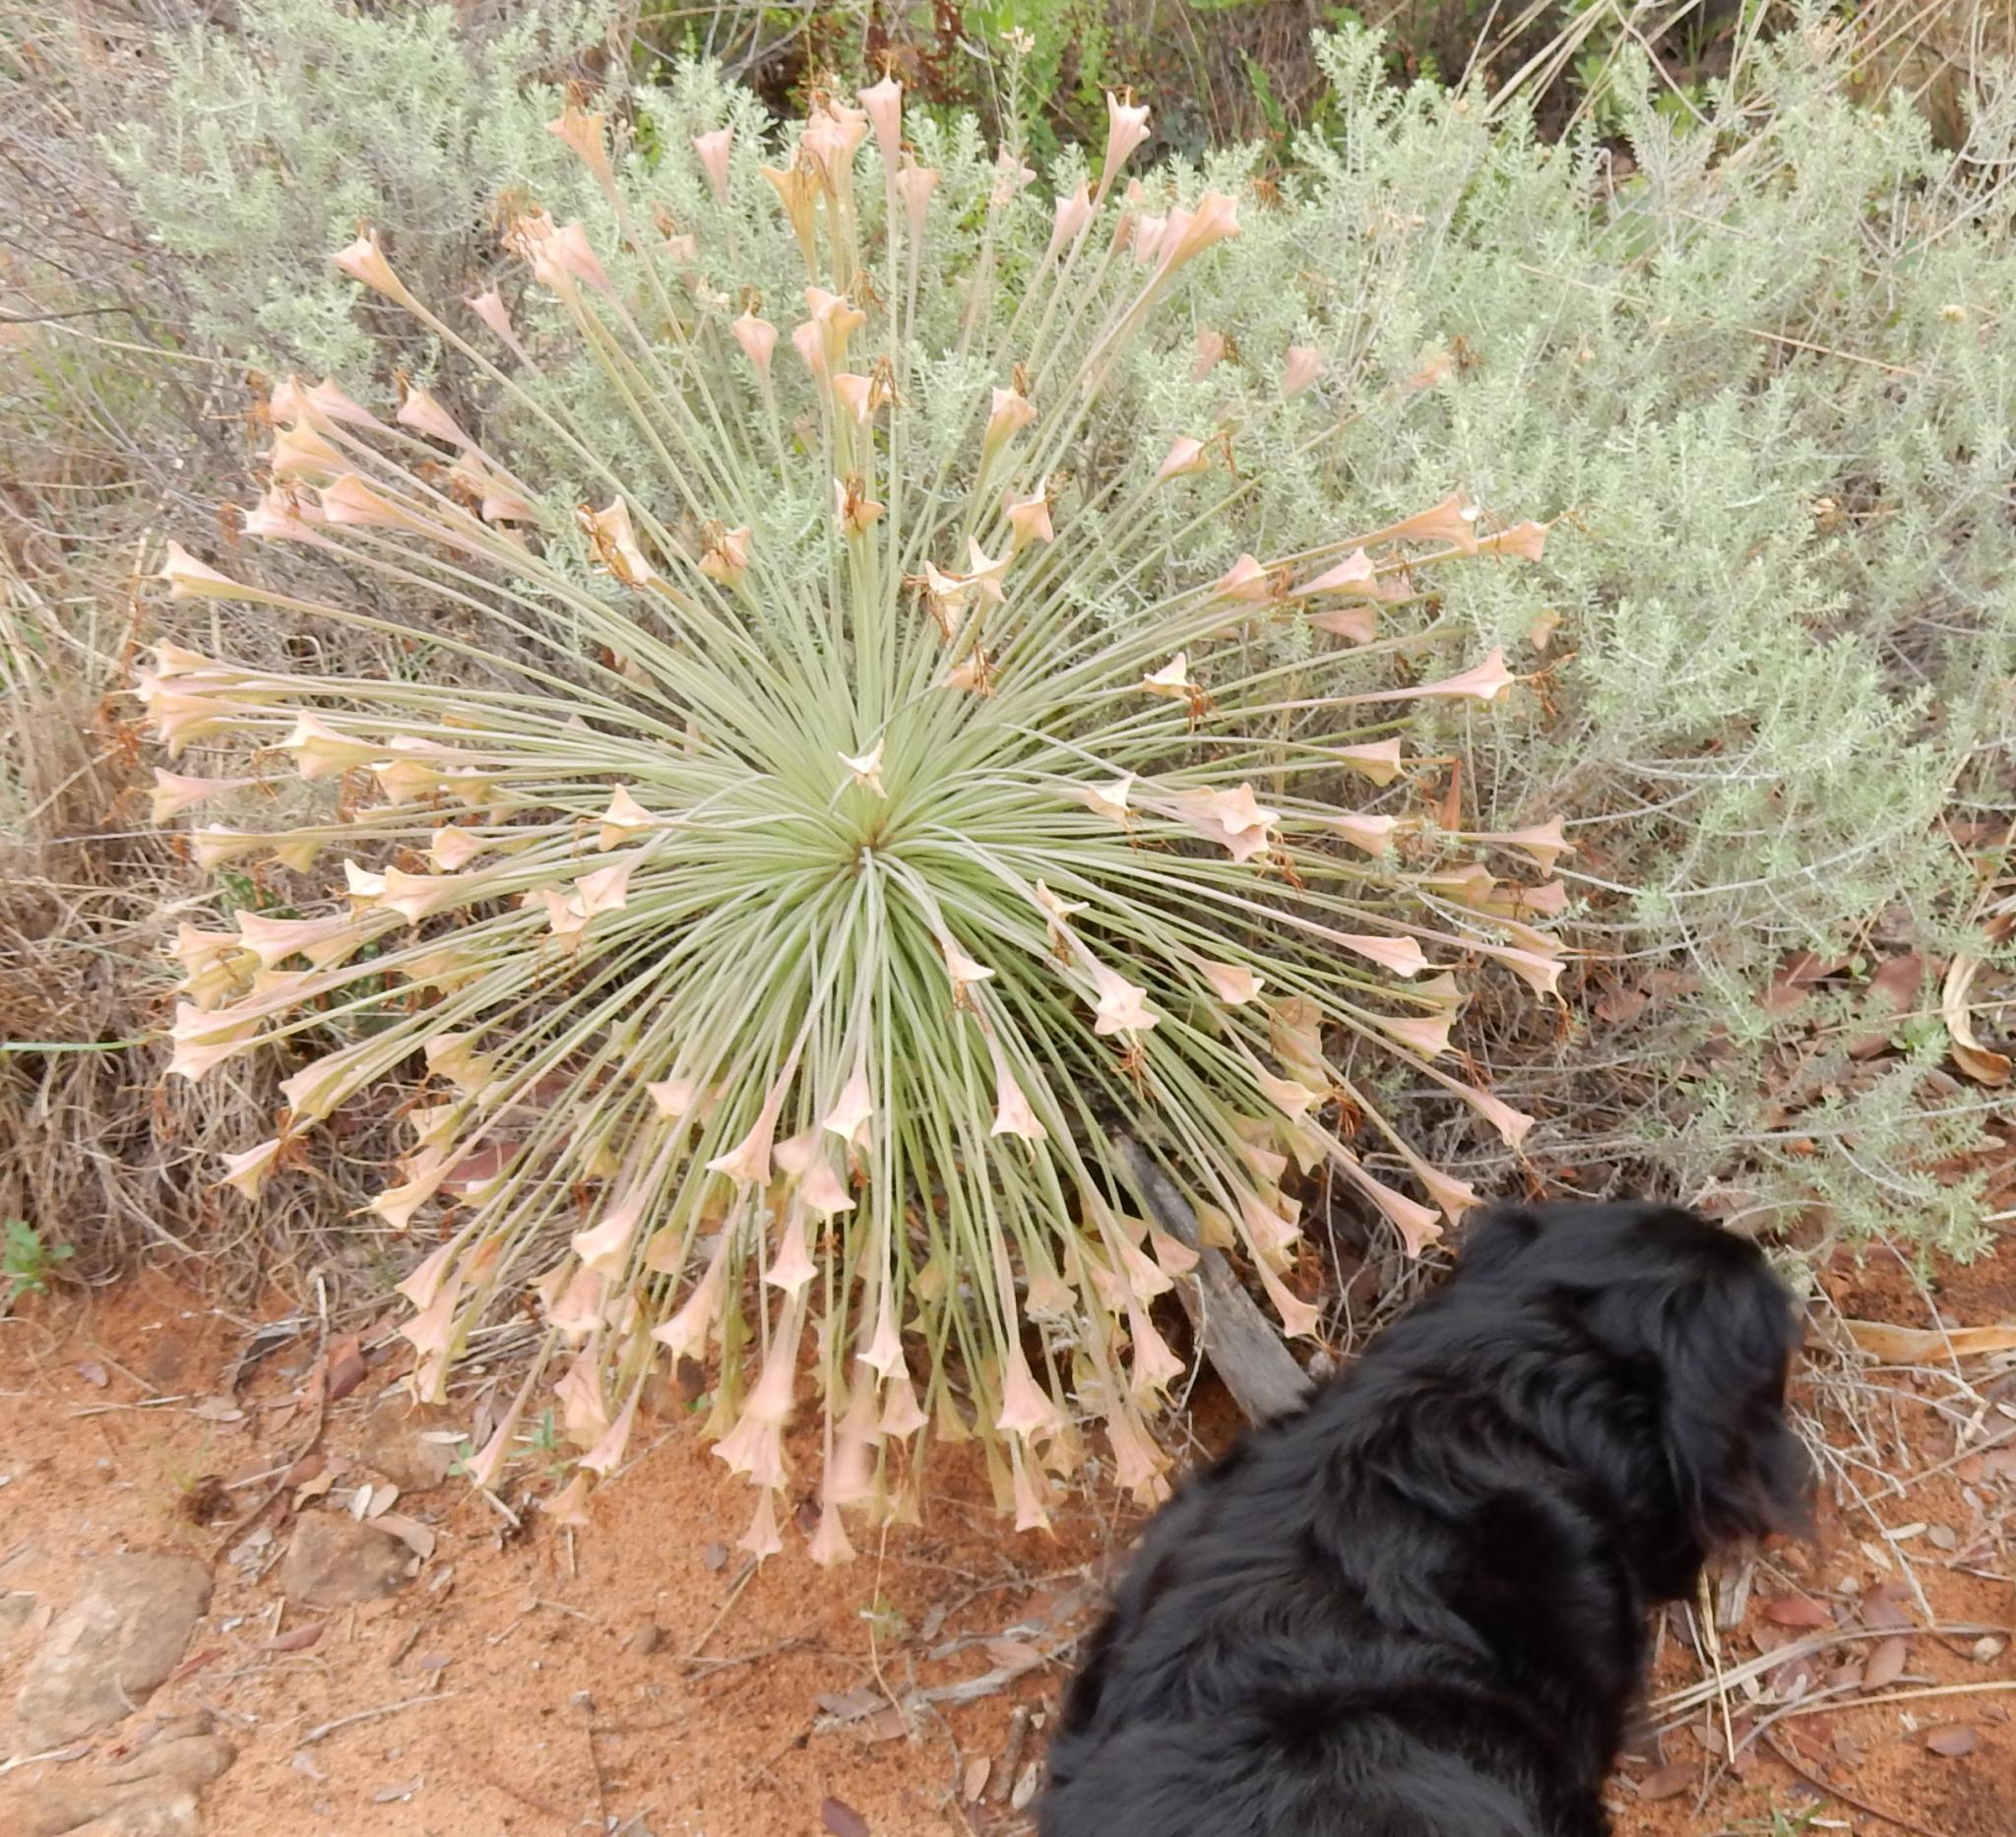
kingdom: Plantae
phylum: Tracheophyta
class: Liliopsida
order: Asparagales
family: Amaryllidaceae
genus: Boophone
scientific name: Boophone disticha
